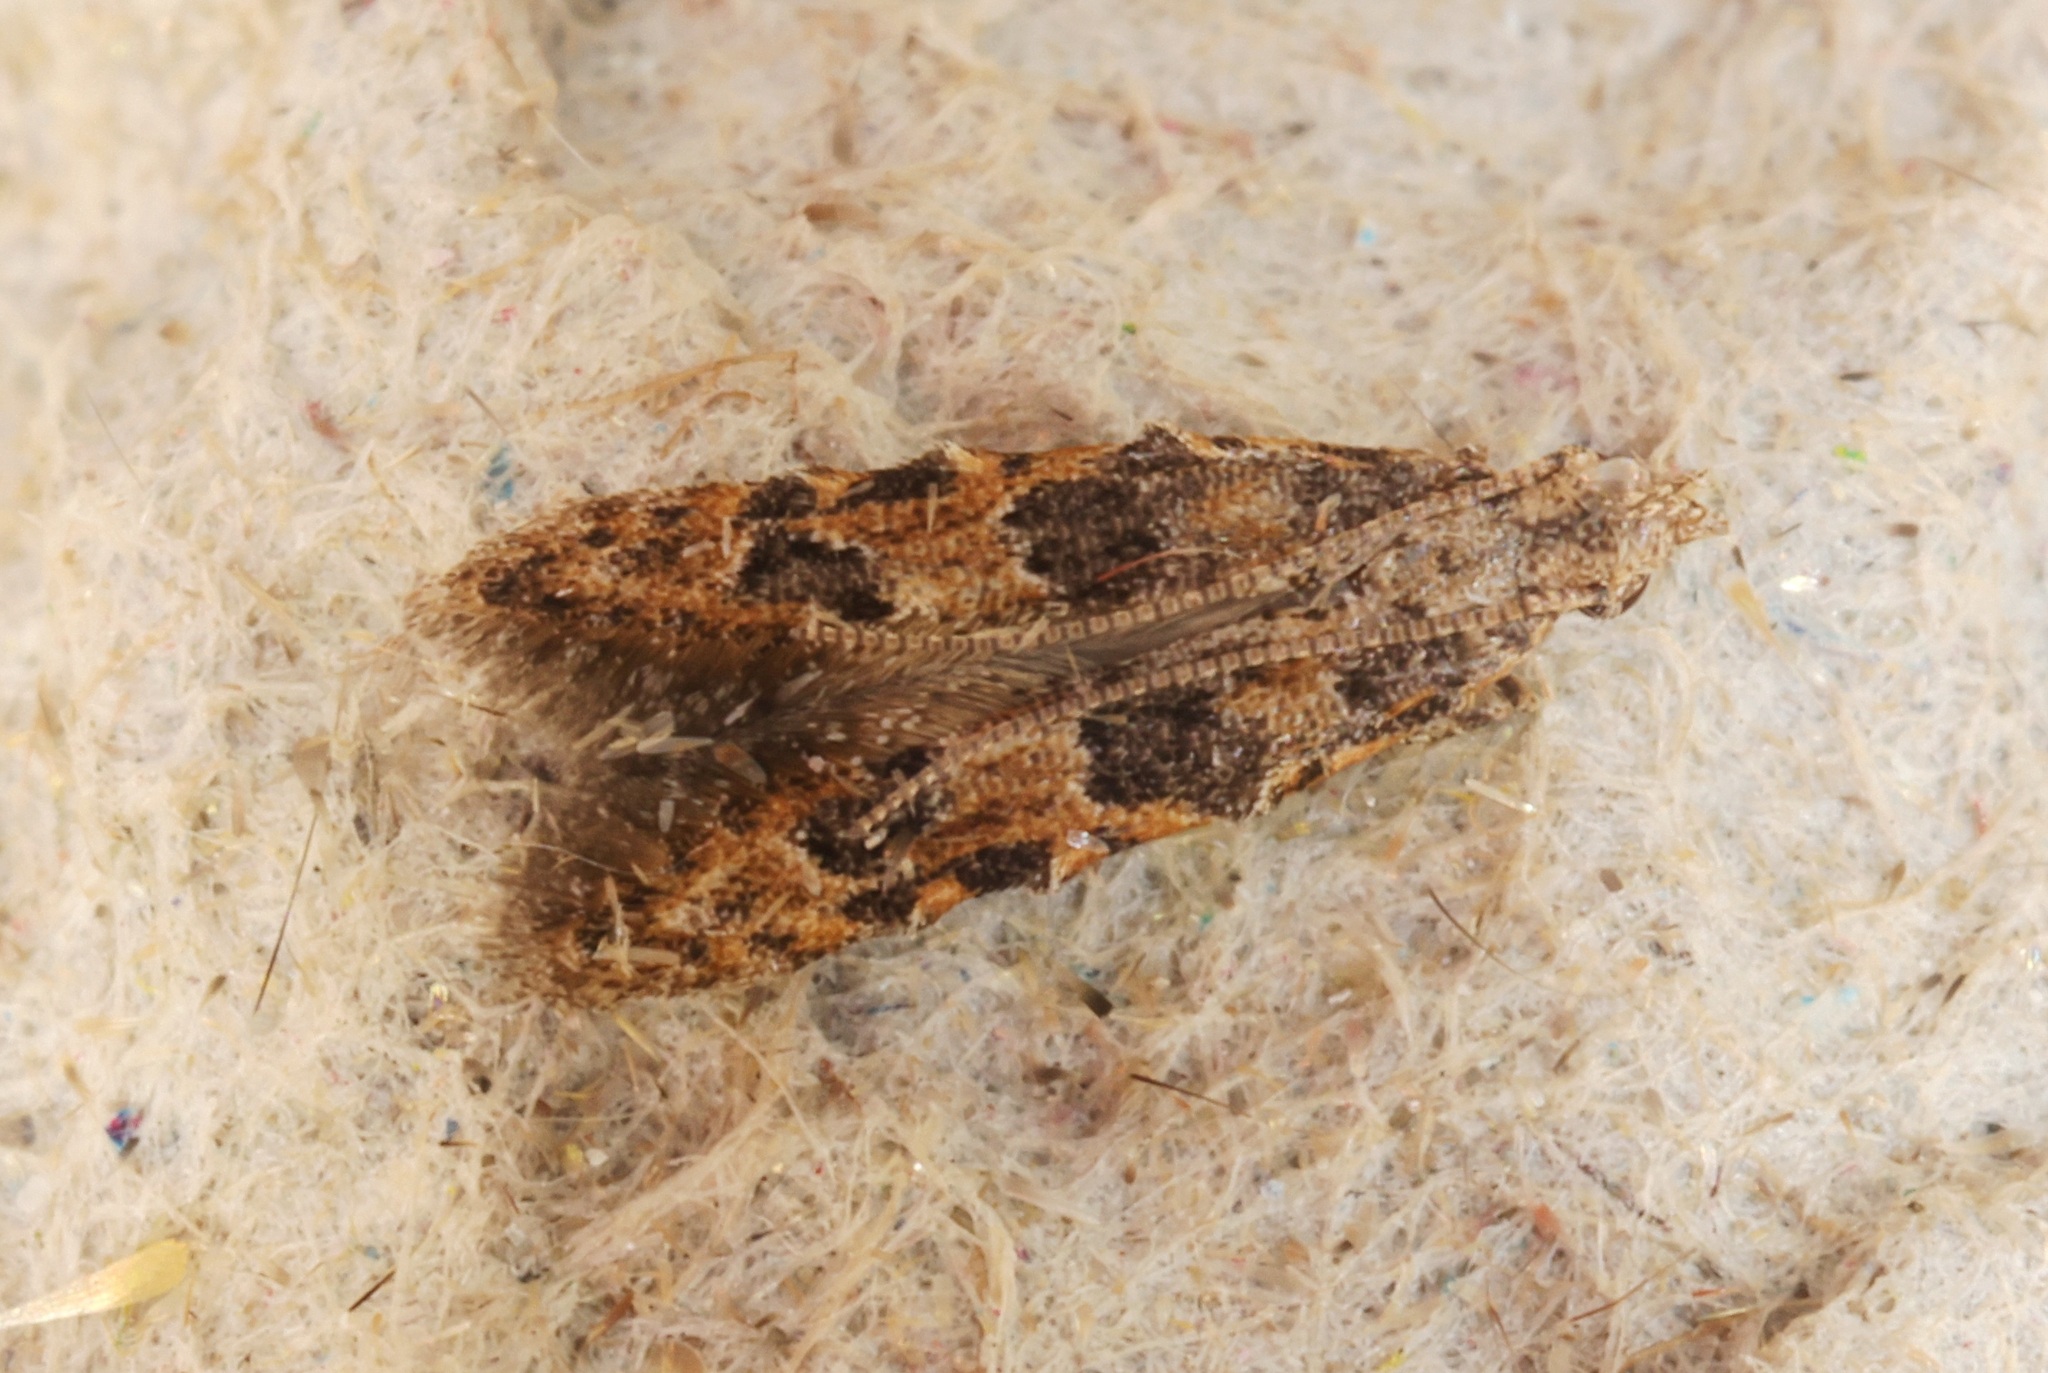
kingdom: Animalia
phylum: Arthropoda
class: Insecta
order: Lepidoptera
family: Gelechiidae
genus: Empalactis
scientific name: Empalactis
